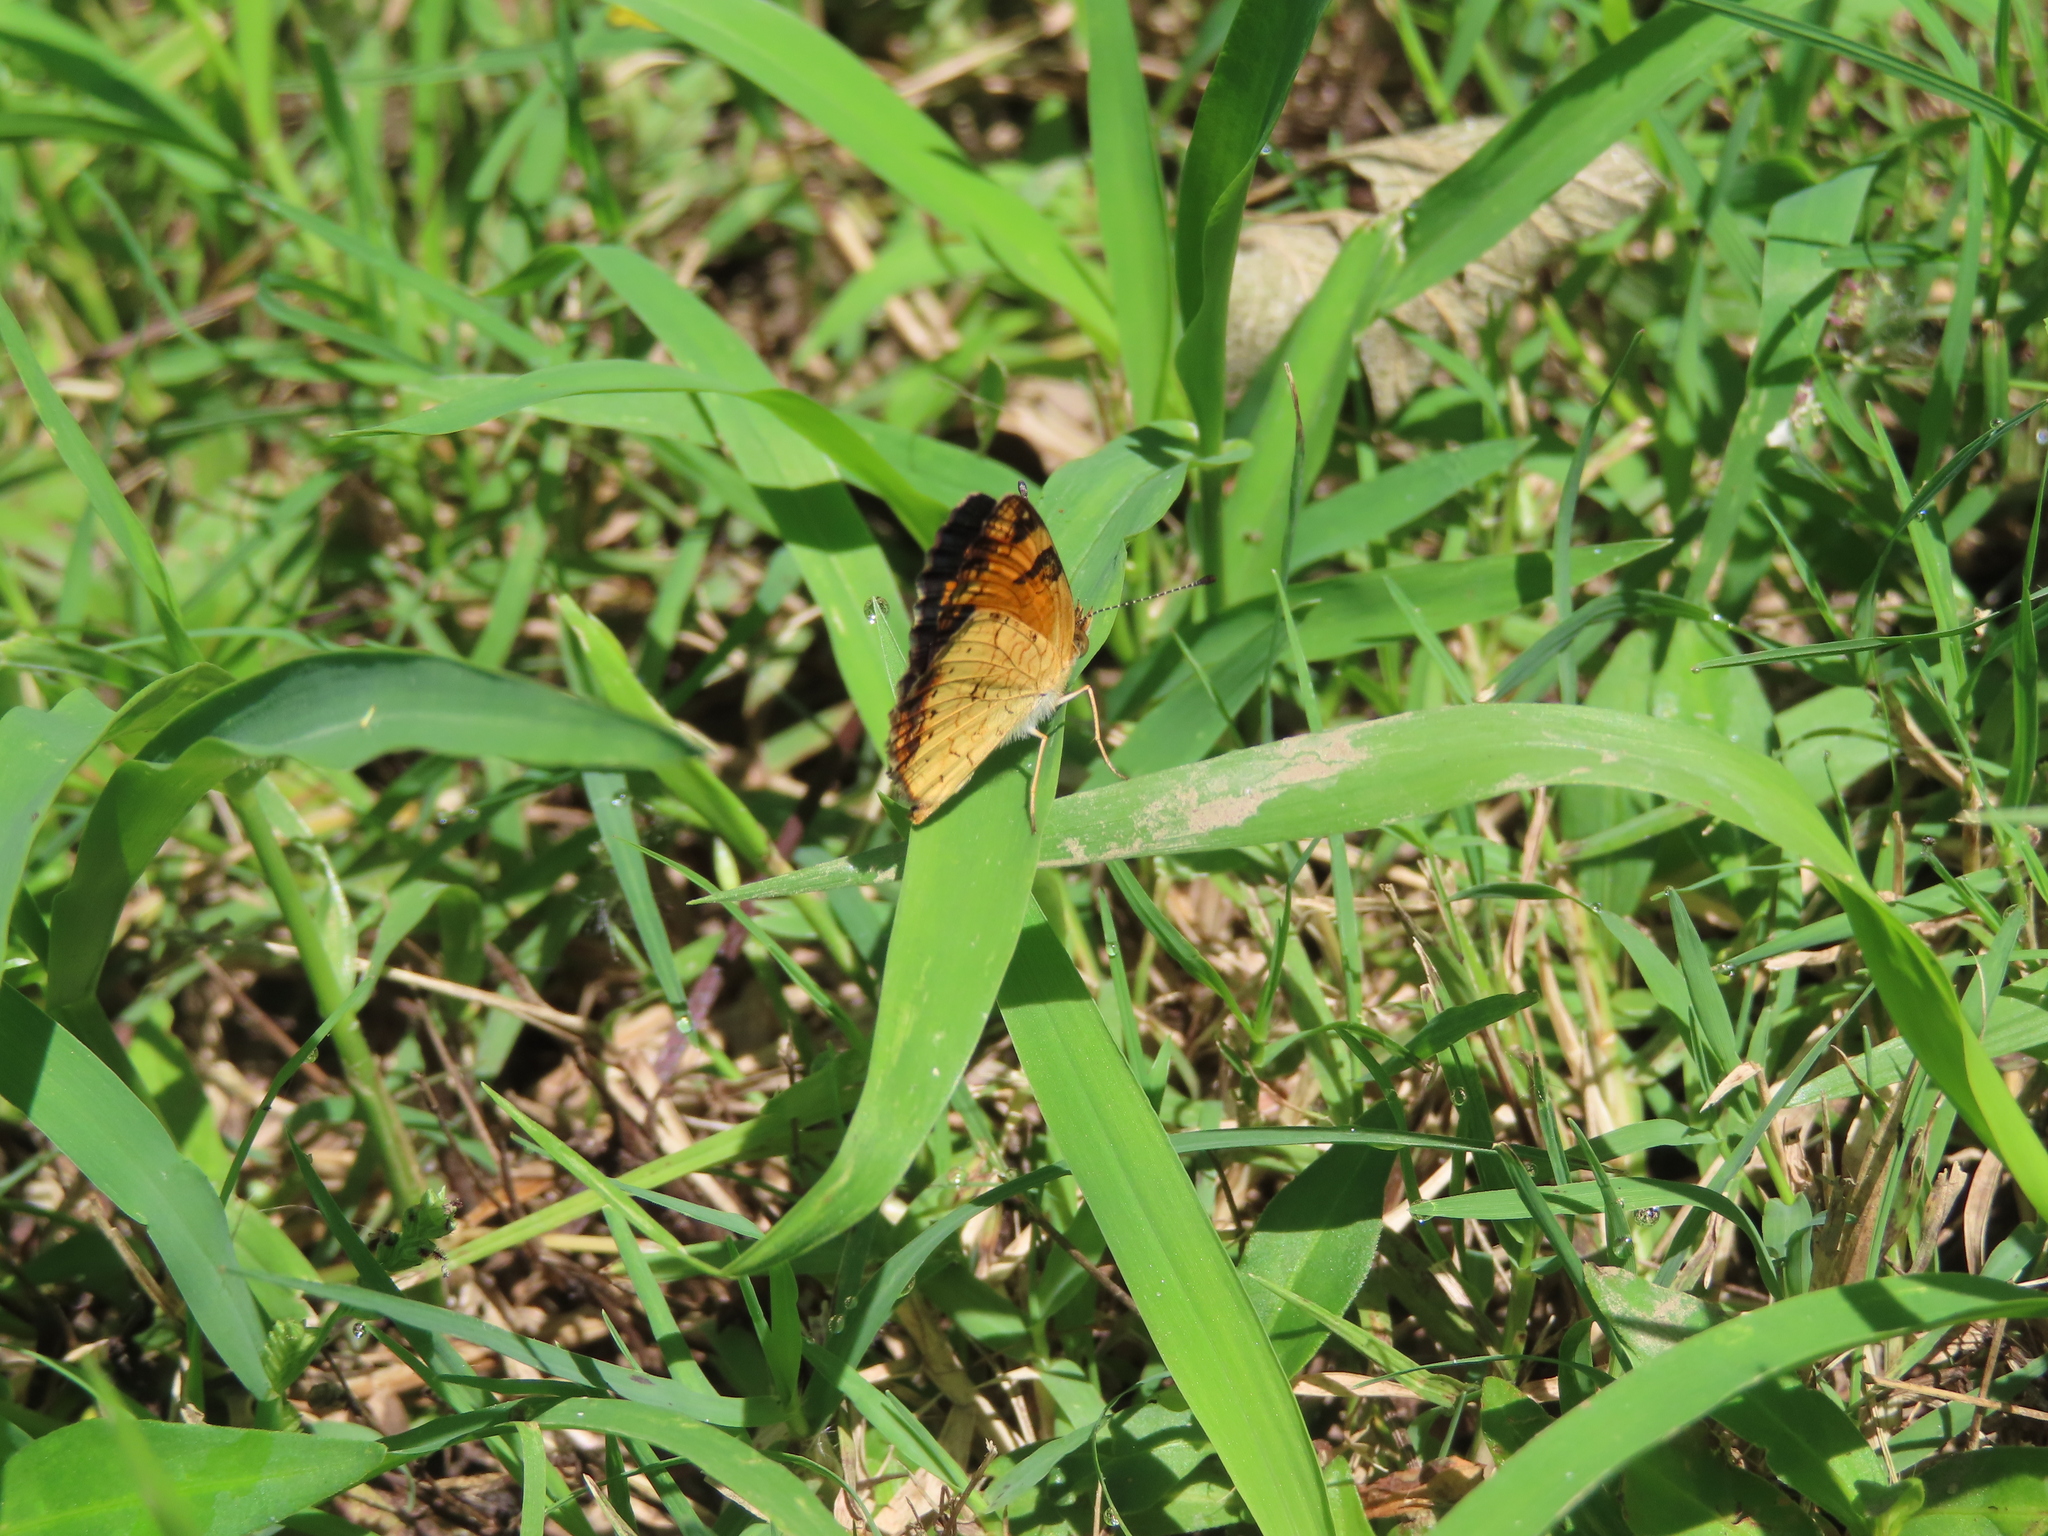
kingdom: Animalia
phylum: Arthropoda
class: Insecta
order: Lepidoptera
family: Nymphalidae
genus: Phyciodes
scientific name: Phyciodes tharos
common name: Pearl crescent
